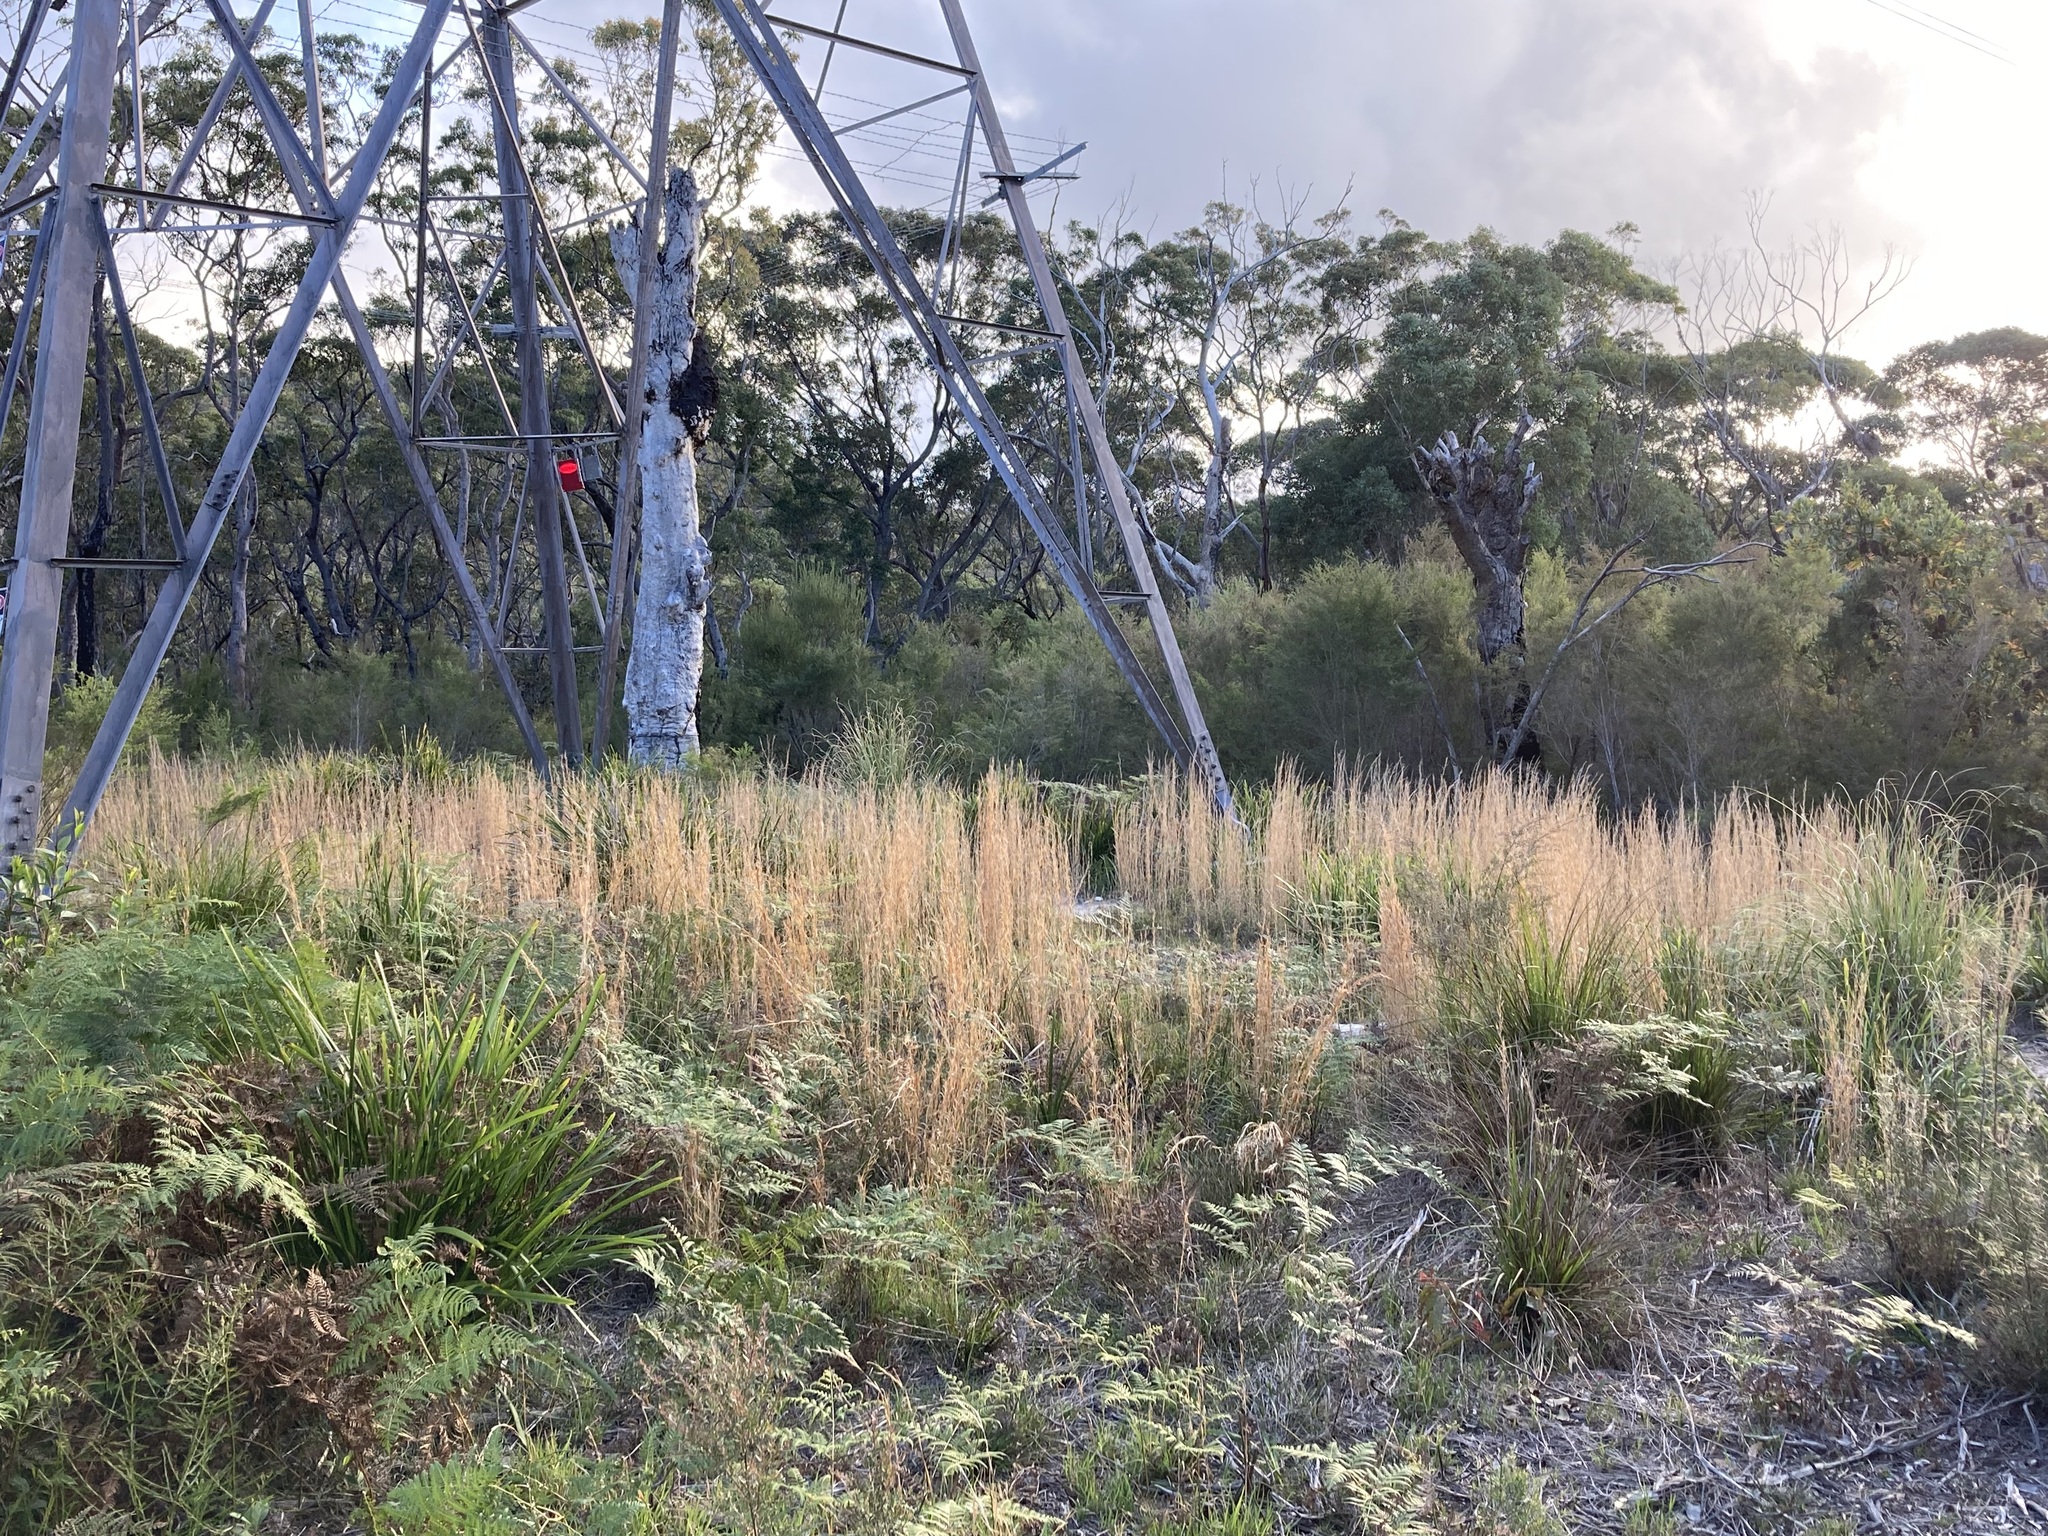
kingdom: Plantae
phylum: Tracheophyta
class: Liliopsida
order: Poales
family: Poaceae
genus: Andropogon
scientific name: Andropogon virginicus
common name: Broomsedge bluestem
